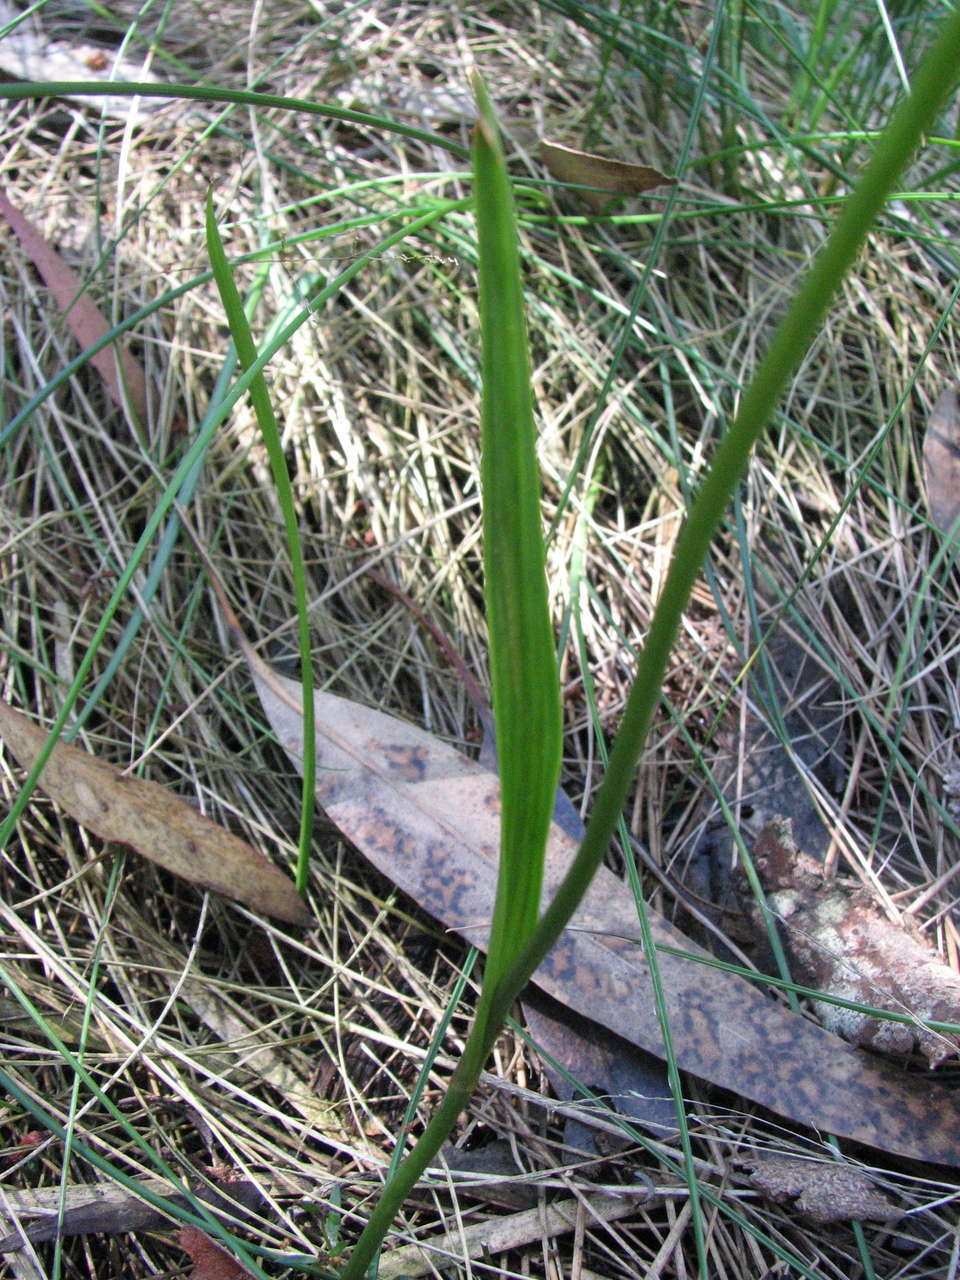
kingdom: Plantae
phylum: Tracheophyta
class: Liliopsida
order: Liliales
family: Colchicaceae
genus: Burchardia
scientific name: Burchardia umbellata
